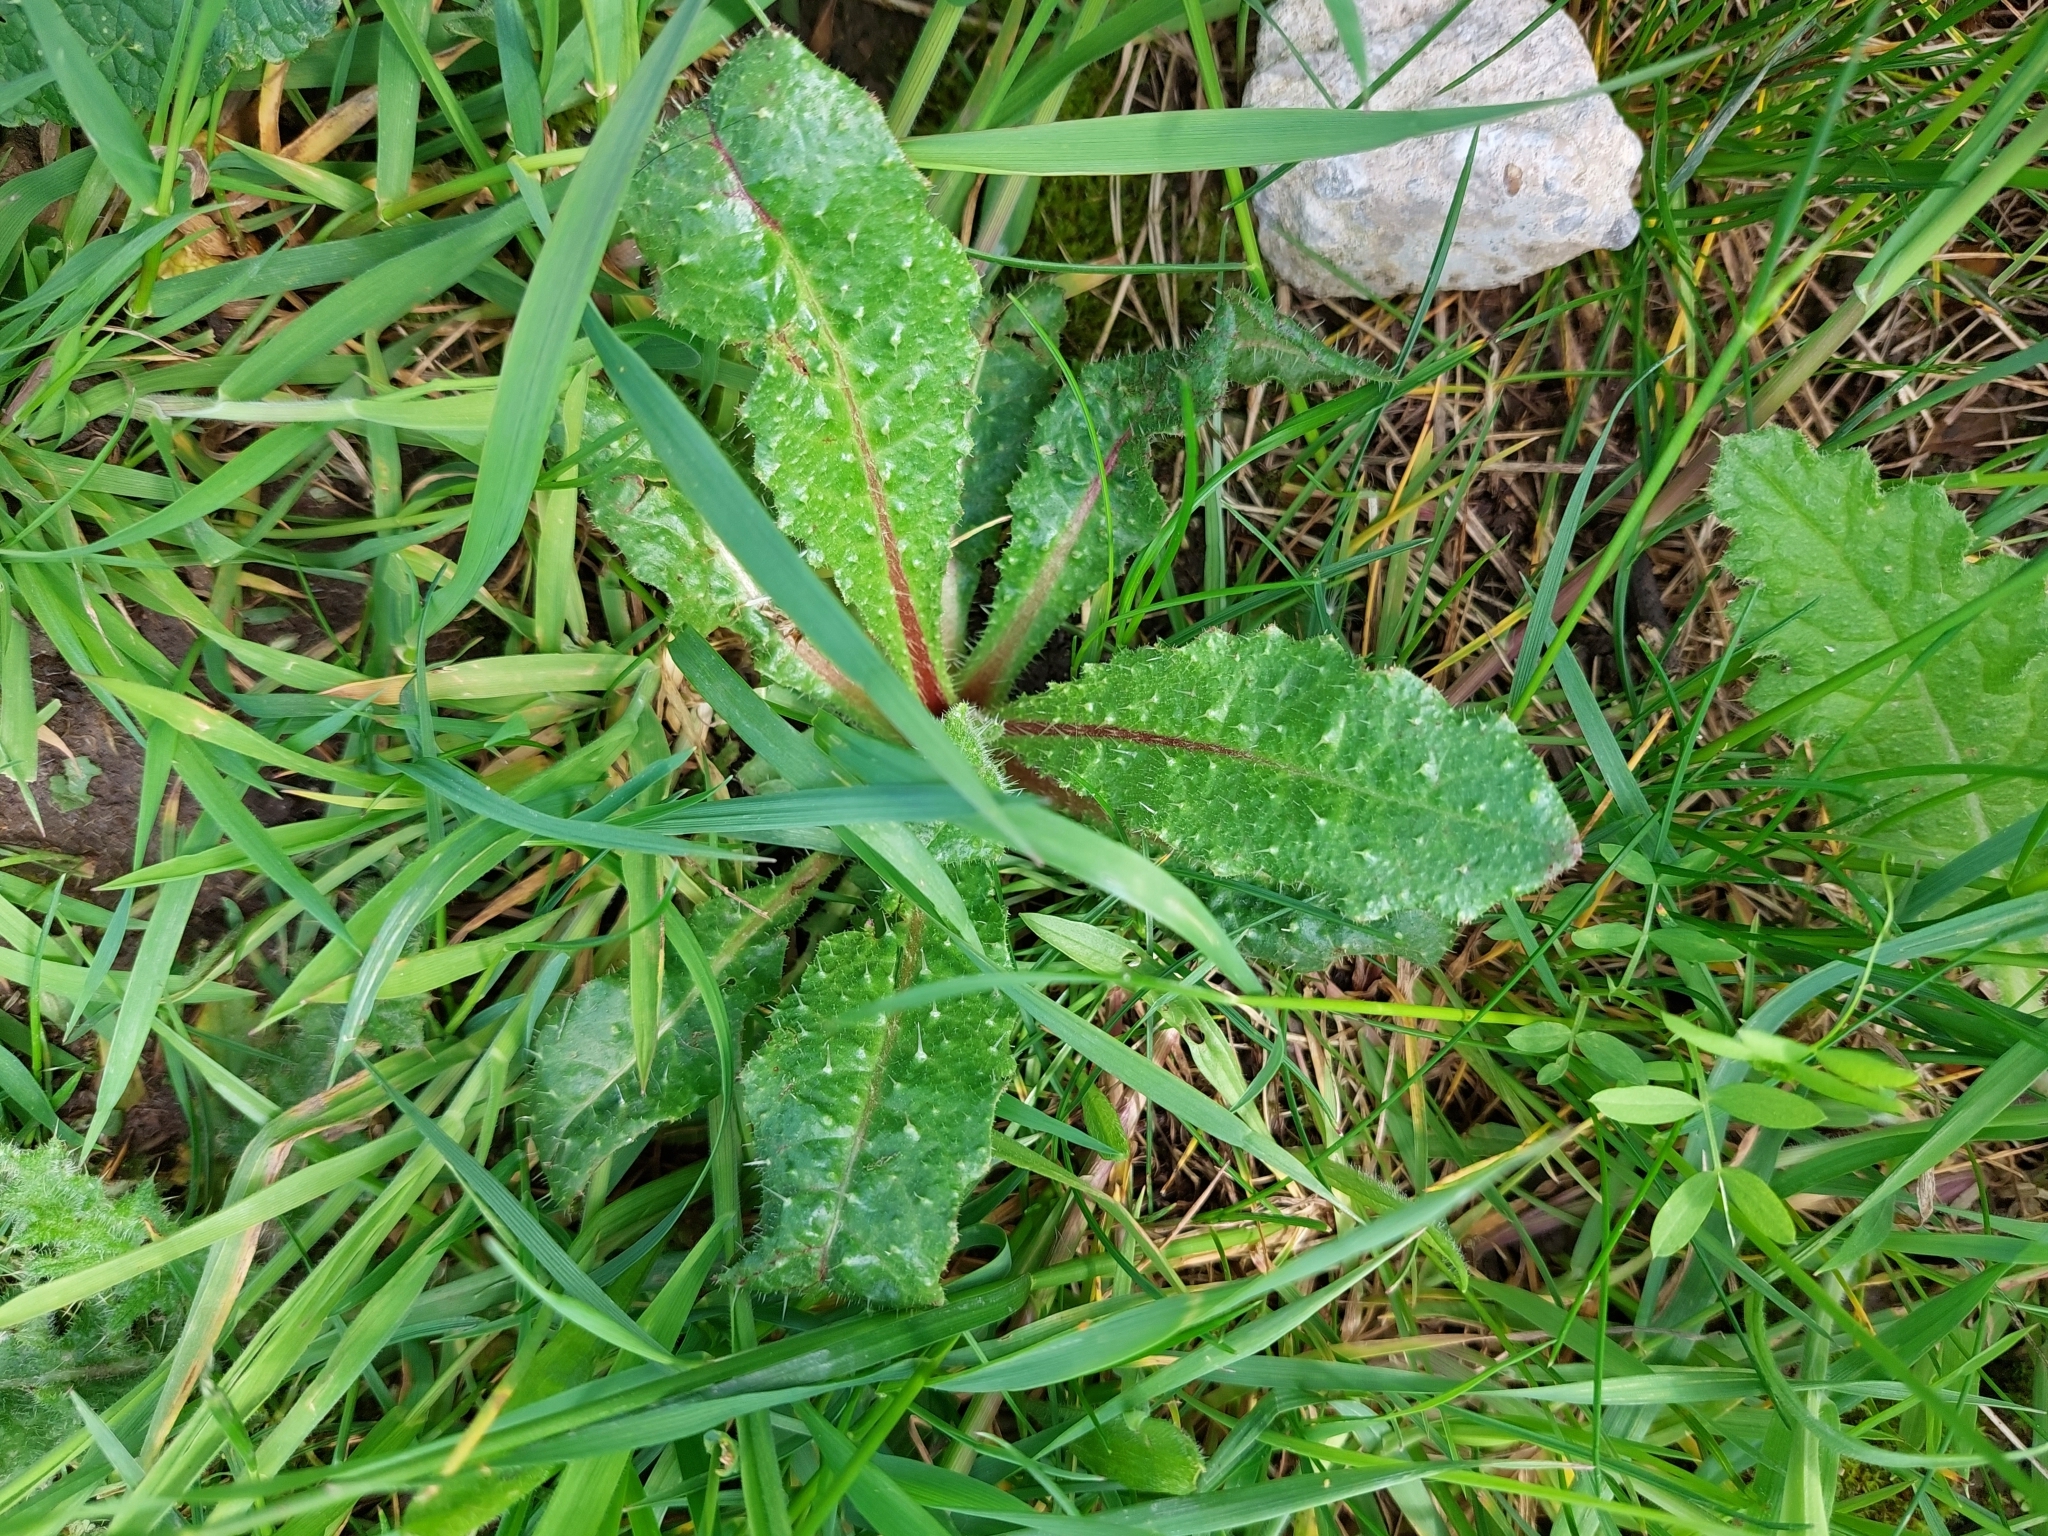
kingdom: Plantae
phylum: Tracheophyta
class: Magnoliopsida
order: Asterales
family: Asteraceae
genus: Helminthotheca
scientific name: Helminthotheca echioides
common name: Ox-tongue
